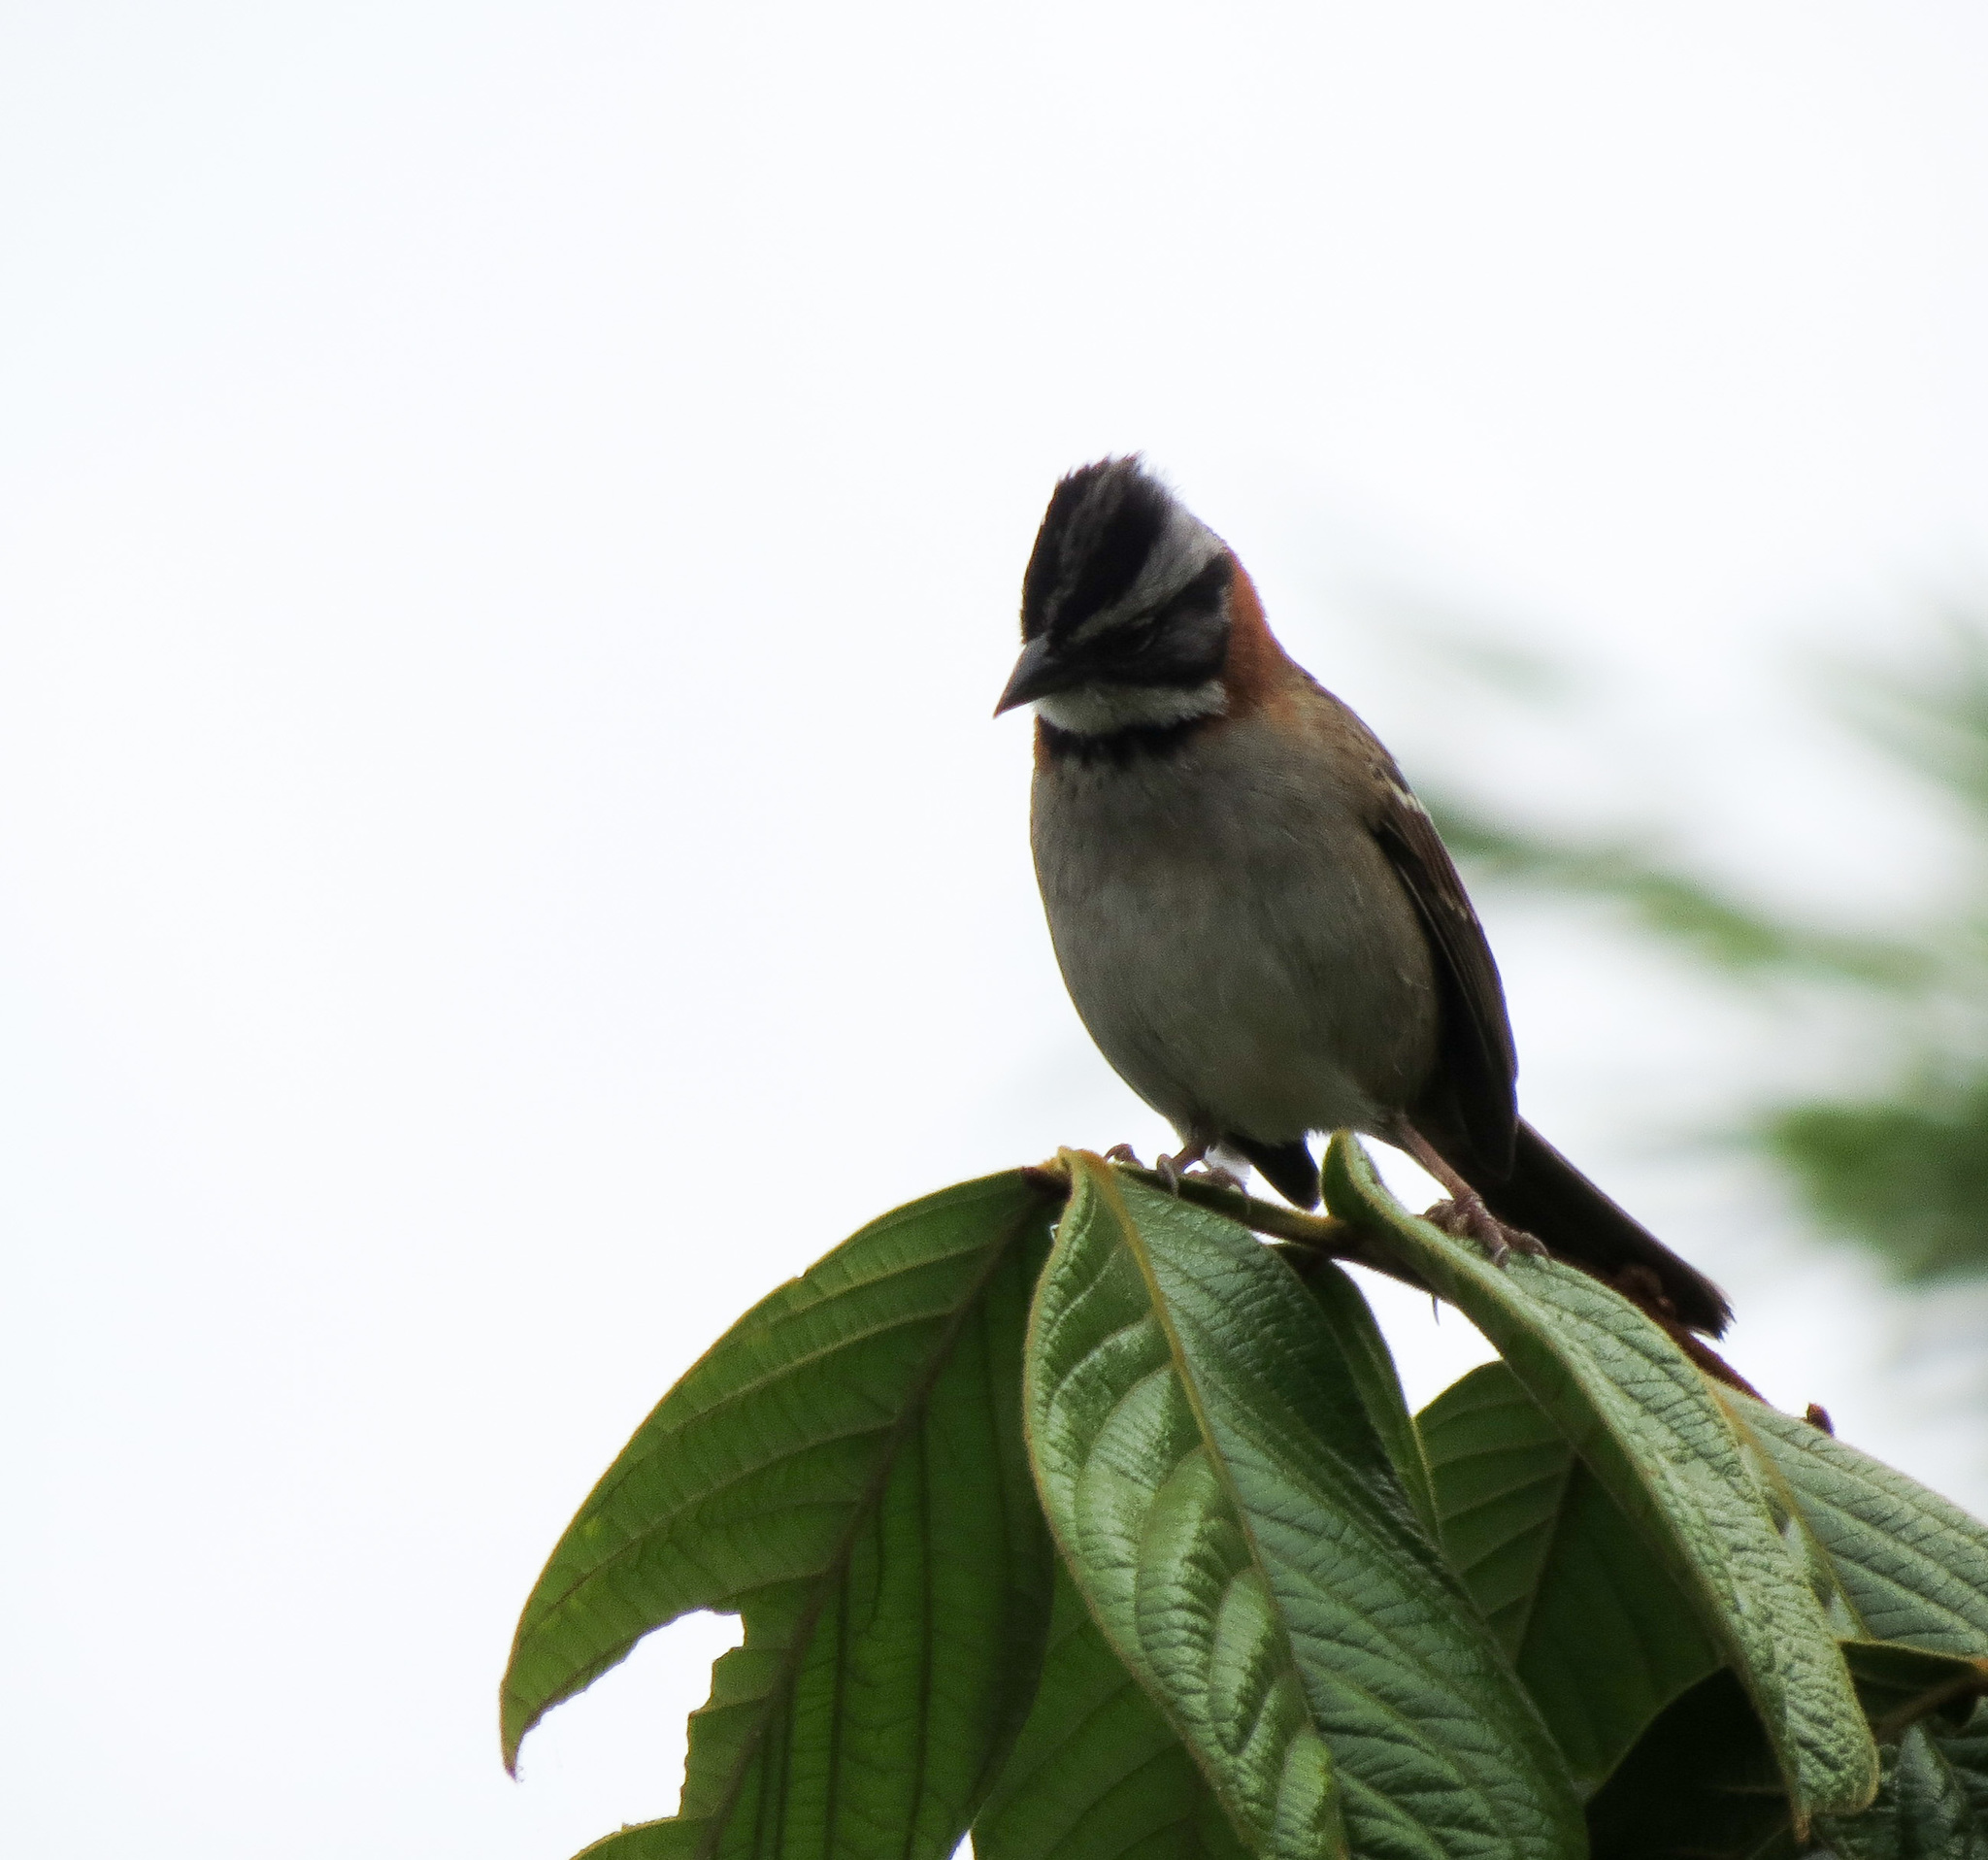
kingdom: Animalia
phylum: Chordata
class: Aves
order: Passeriformes
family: Passerellidae
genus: Zonotrichia
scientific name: Zonotrichia capensis
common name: Rufous-collared sparrow
